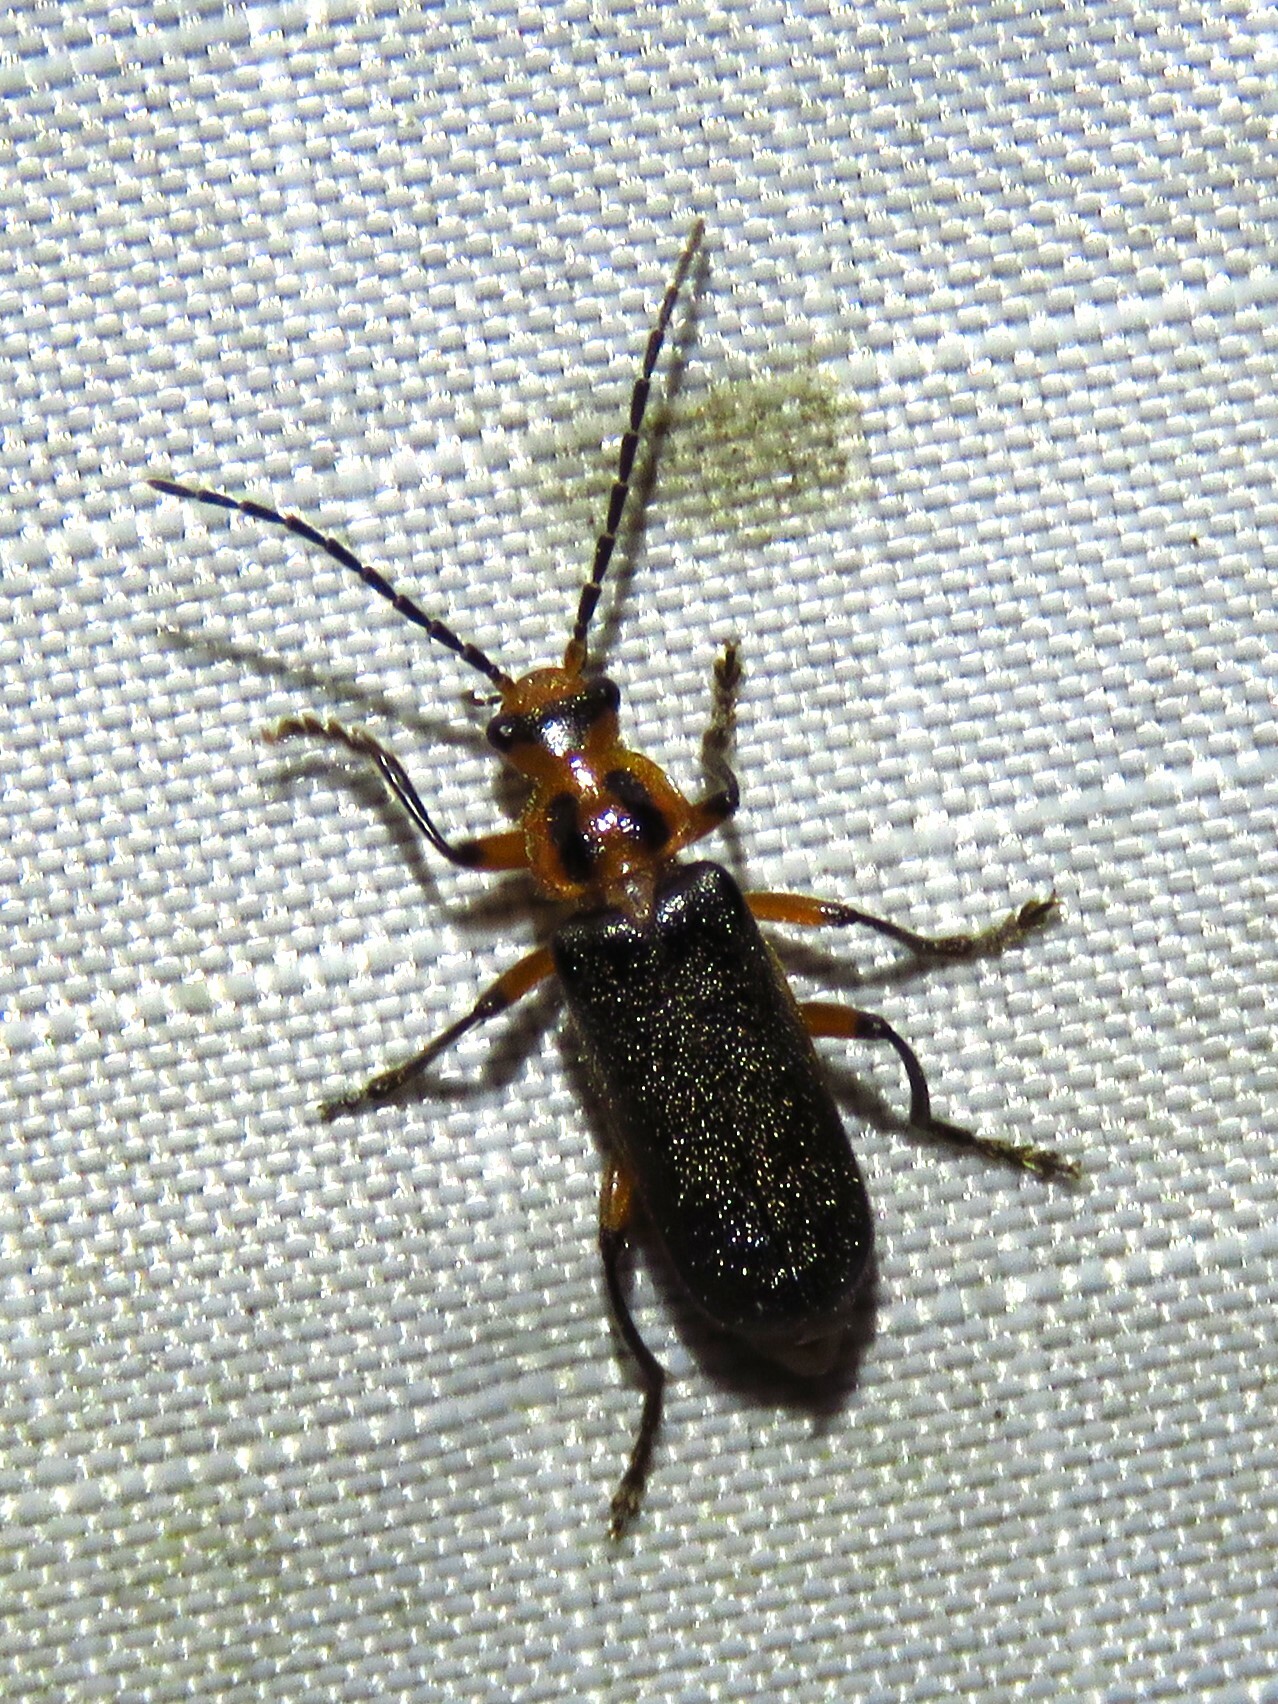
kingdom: Animalia
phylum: Arthropoda
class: Insecta
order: Coleoptera
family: Cantharidae
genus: Atalantycha
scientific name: Atalantycha bilineata
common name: Two-lined leatherwing
